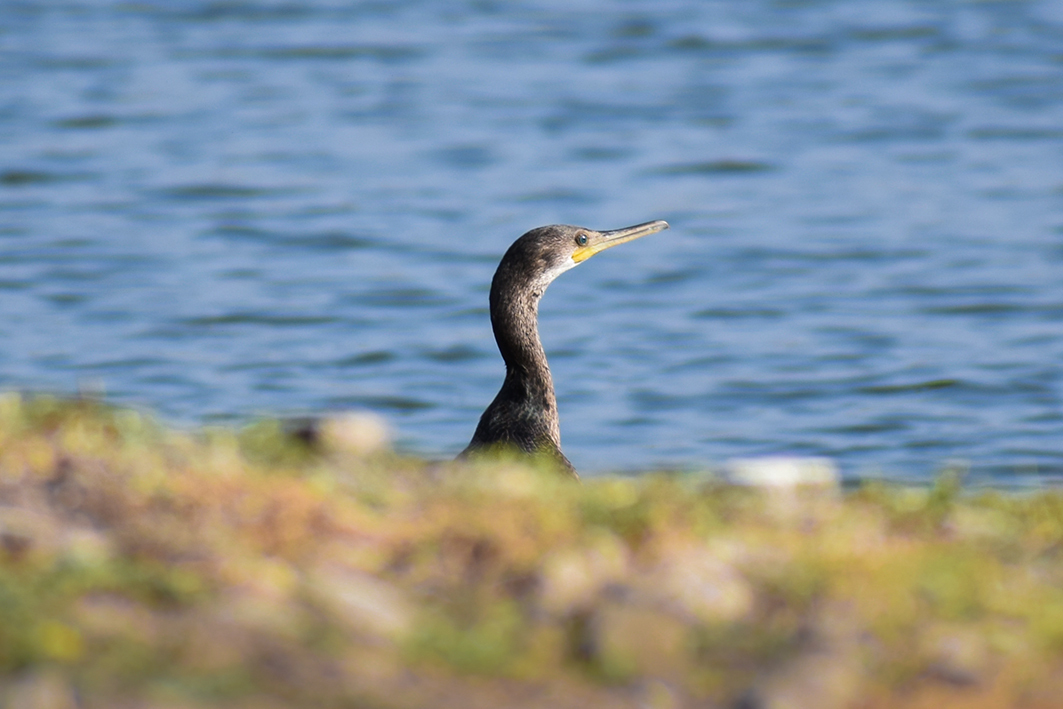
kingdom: Animalia
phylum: Chordata
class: Aves
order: Suliformes
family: Phalacrocoracidae
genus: Phalacrocorax
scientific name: Phalacrocorax fuscicollis
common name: Indian cormorant
